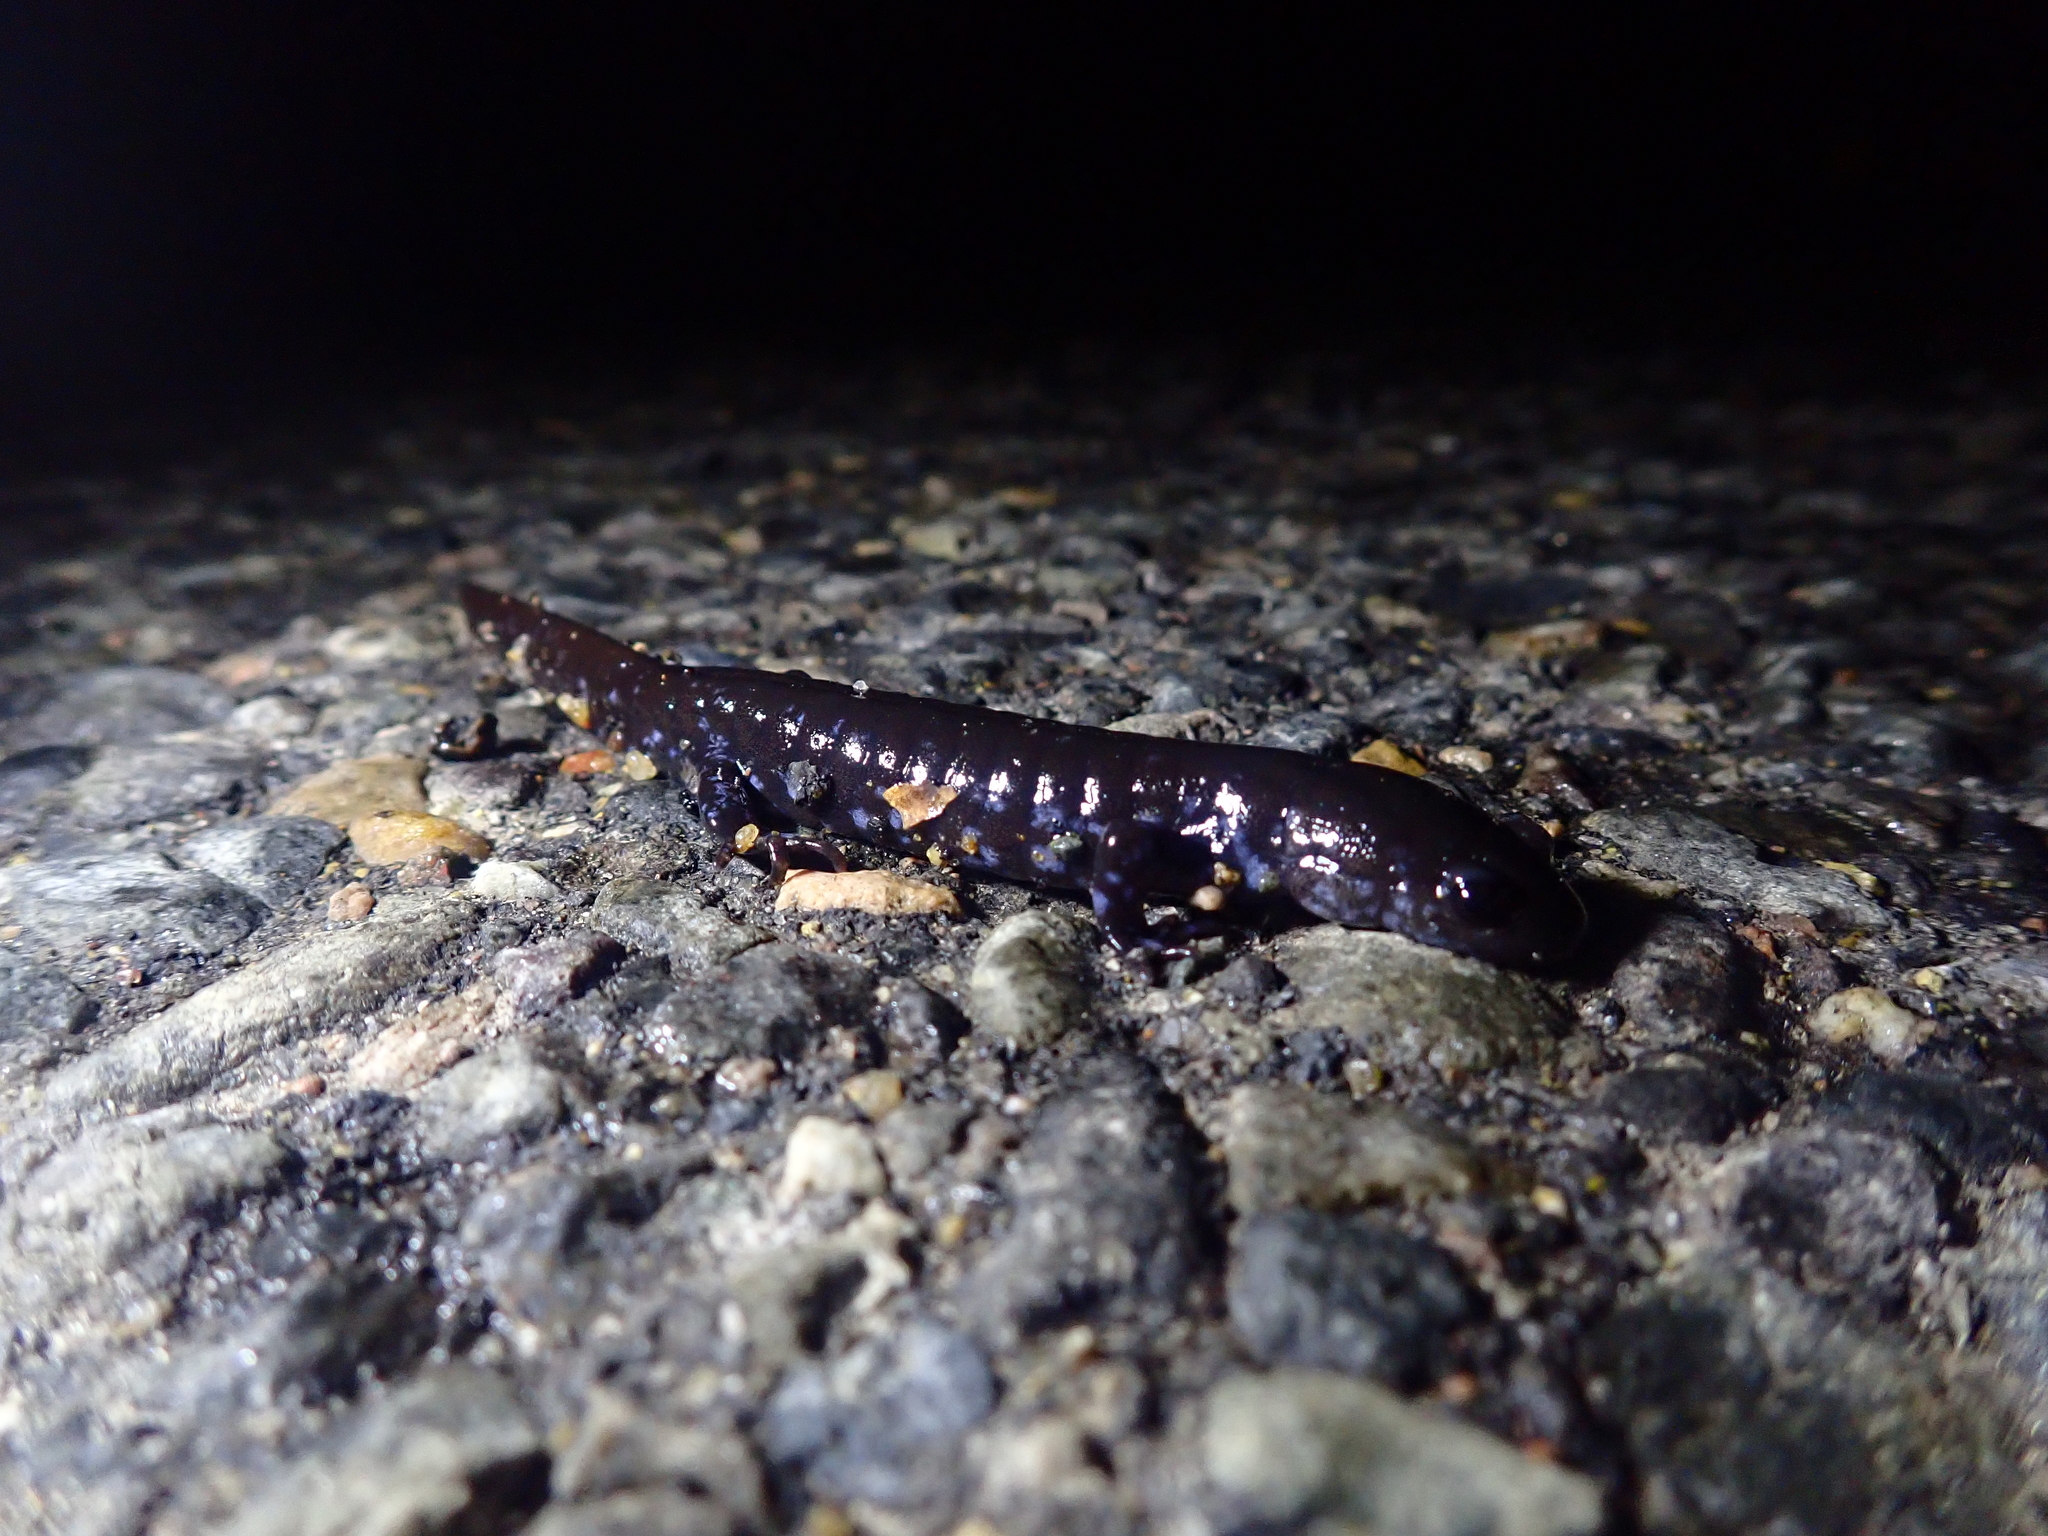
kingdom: Animalia
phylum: Chordata
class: Amphibia
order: Caudata
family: Ambystomatidae
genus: Ambystoma
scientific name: Ambystoma laterale
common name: Blue-spotted salamander
